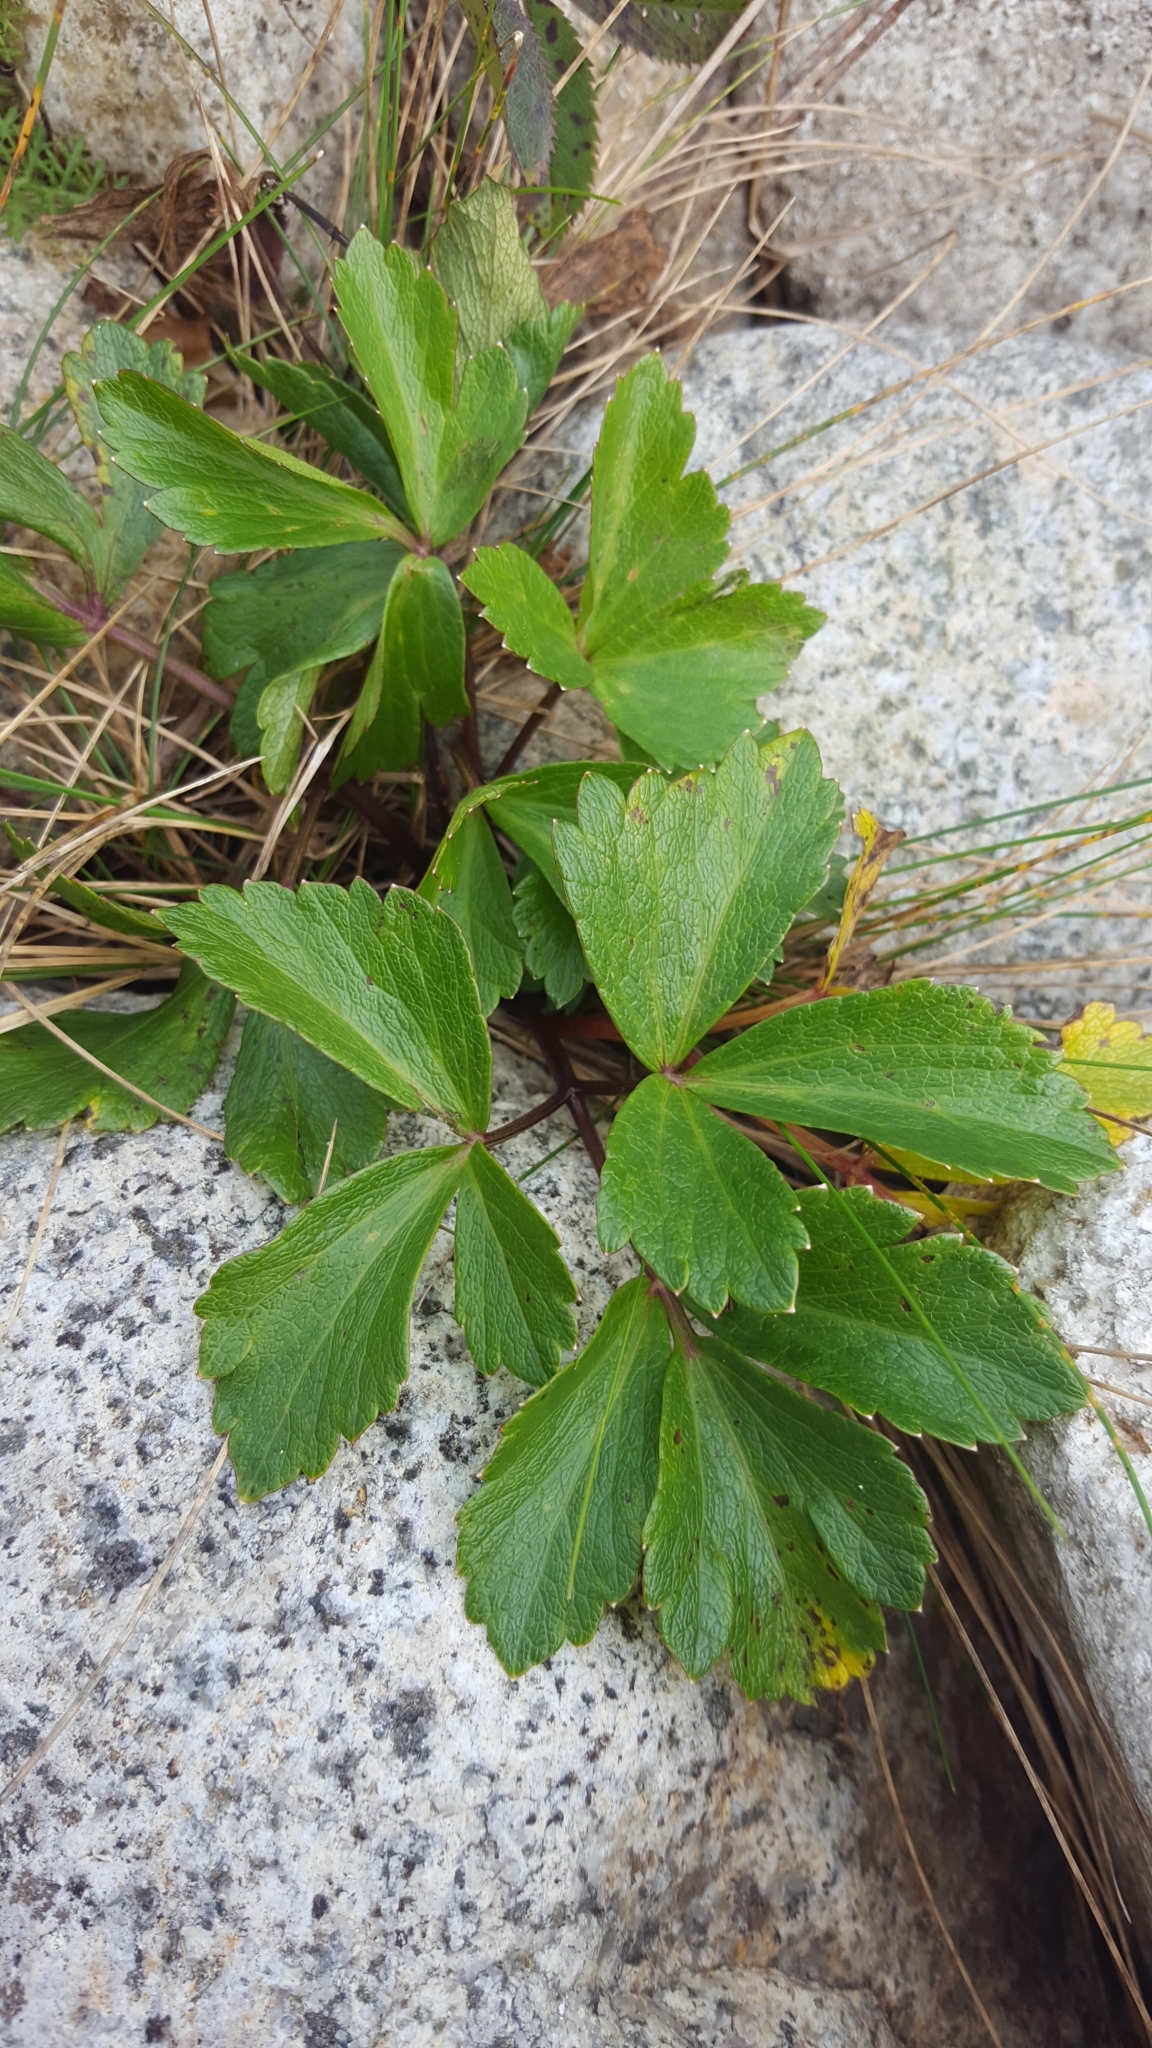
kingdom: Plantae
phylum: Tracheophyta
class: Magnoliopsida
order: Apiales
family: Apiaceae
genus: Ligusticum
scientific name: Ligusticum scothicum
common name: Beach lovage
